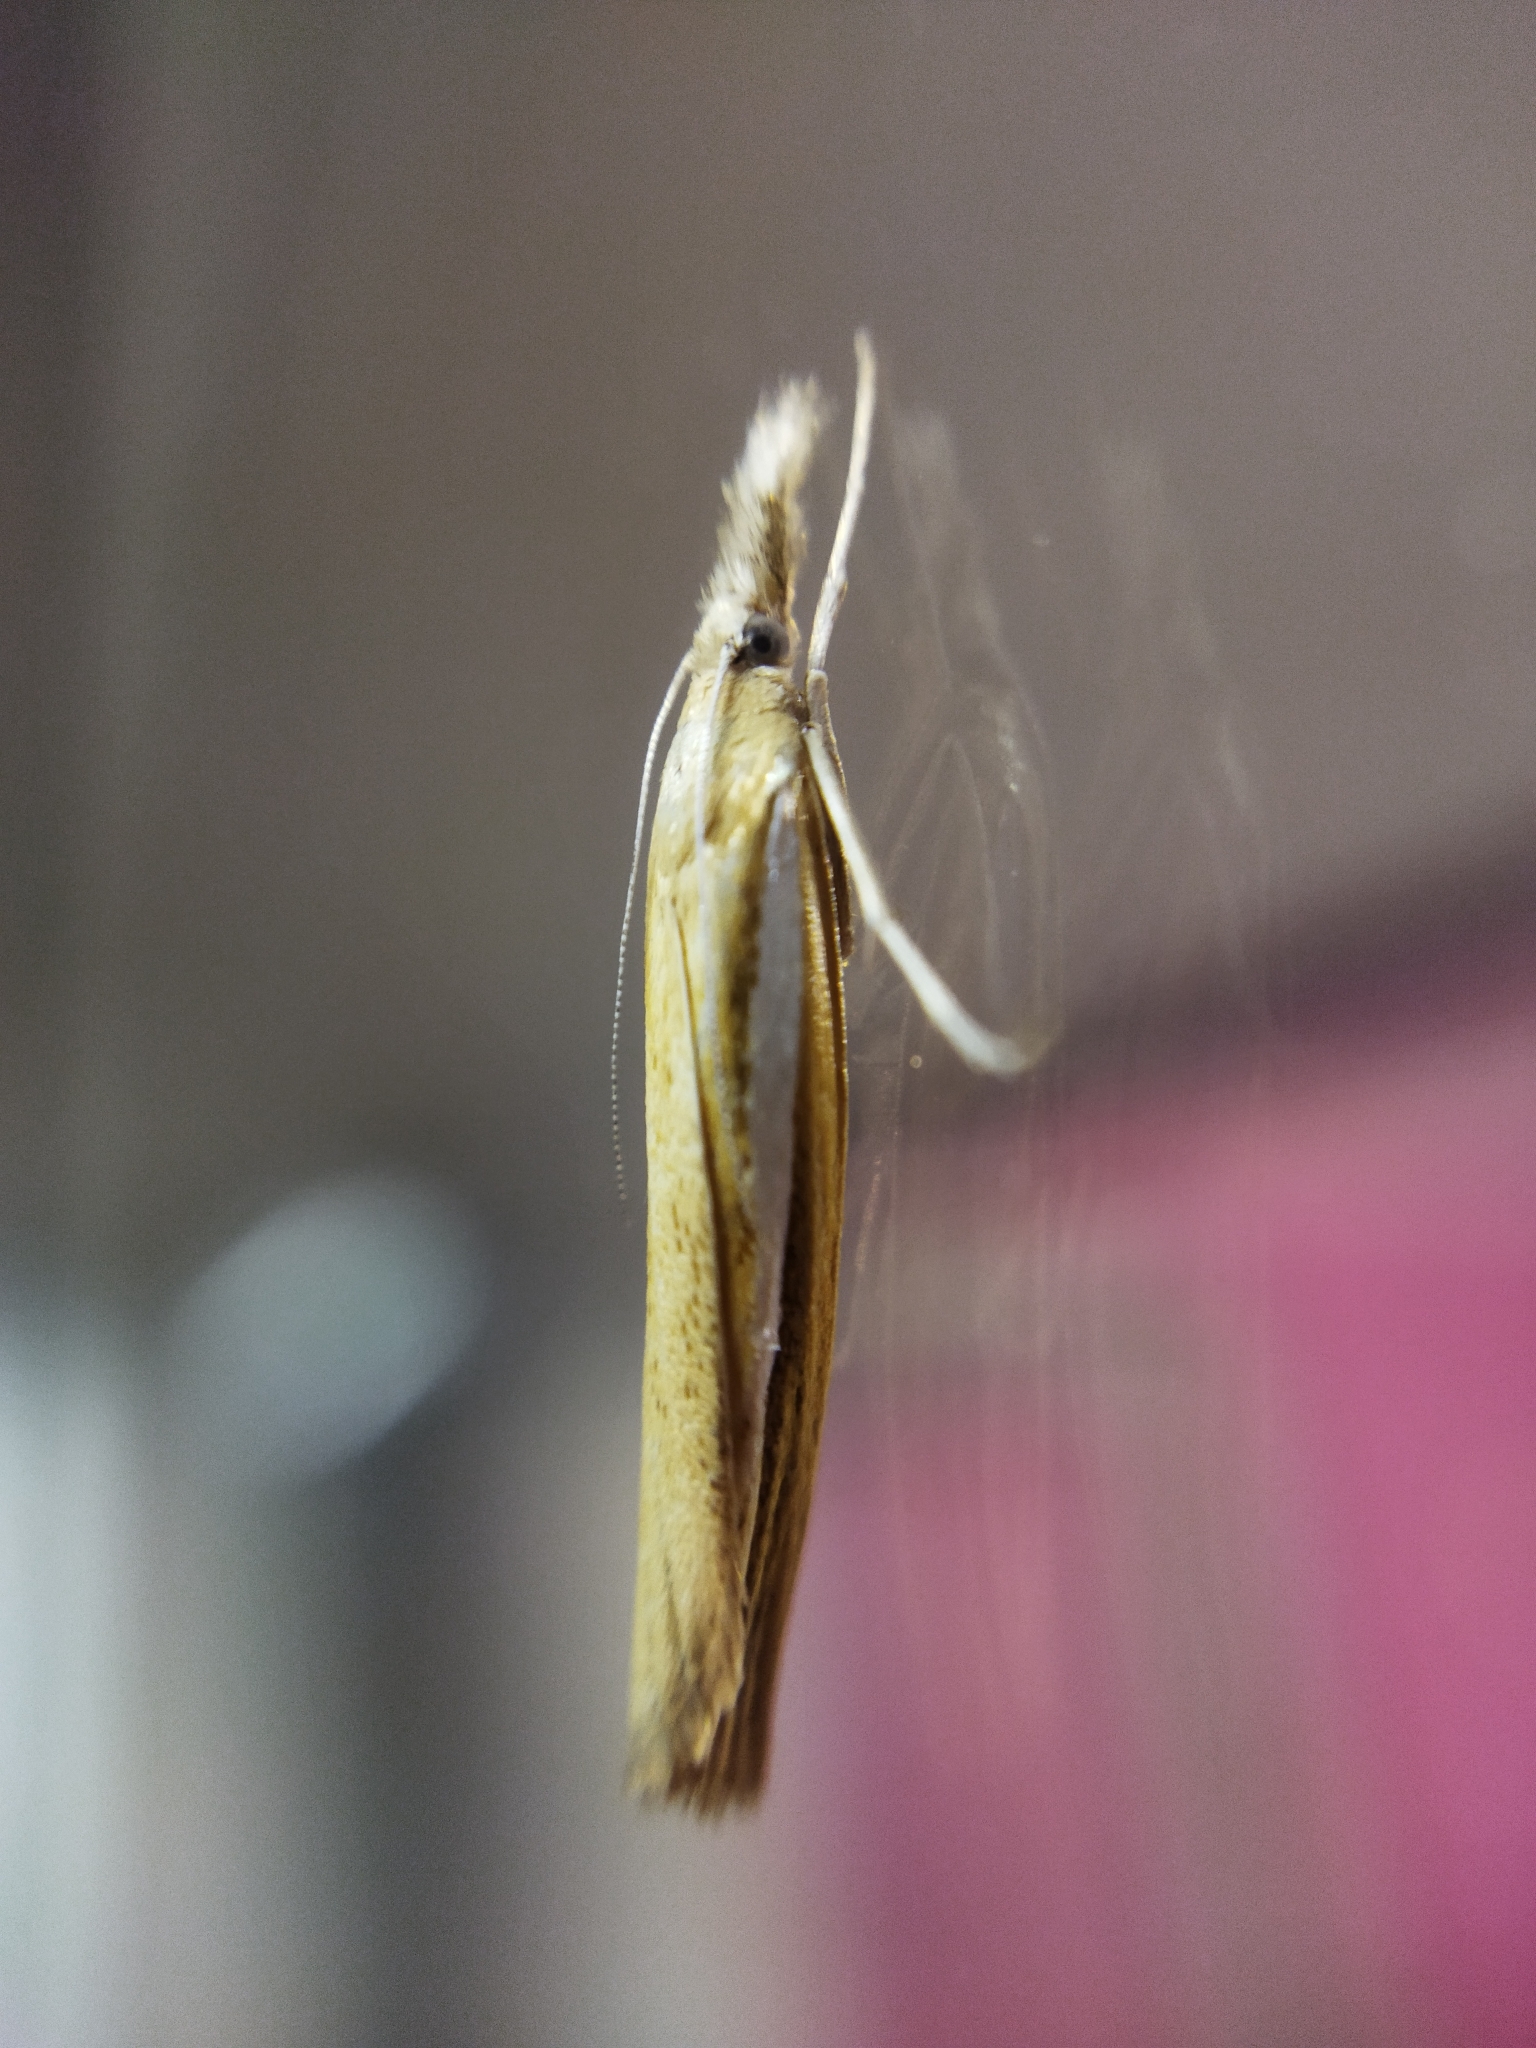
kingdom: Animalia
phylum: Arthropoda
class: Insecta
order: Lepidoptera
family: Crambidae
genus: Agriphila
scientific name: Agriphila tristellus
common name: Common grass-veneer
